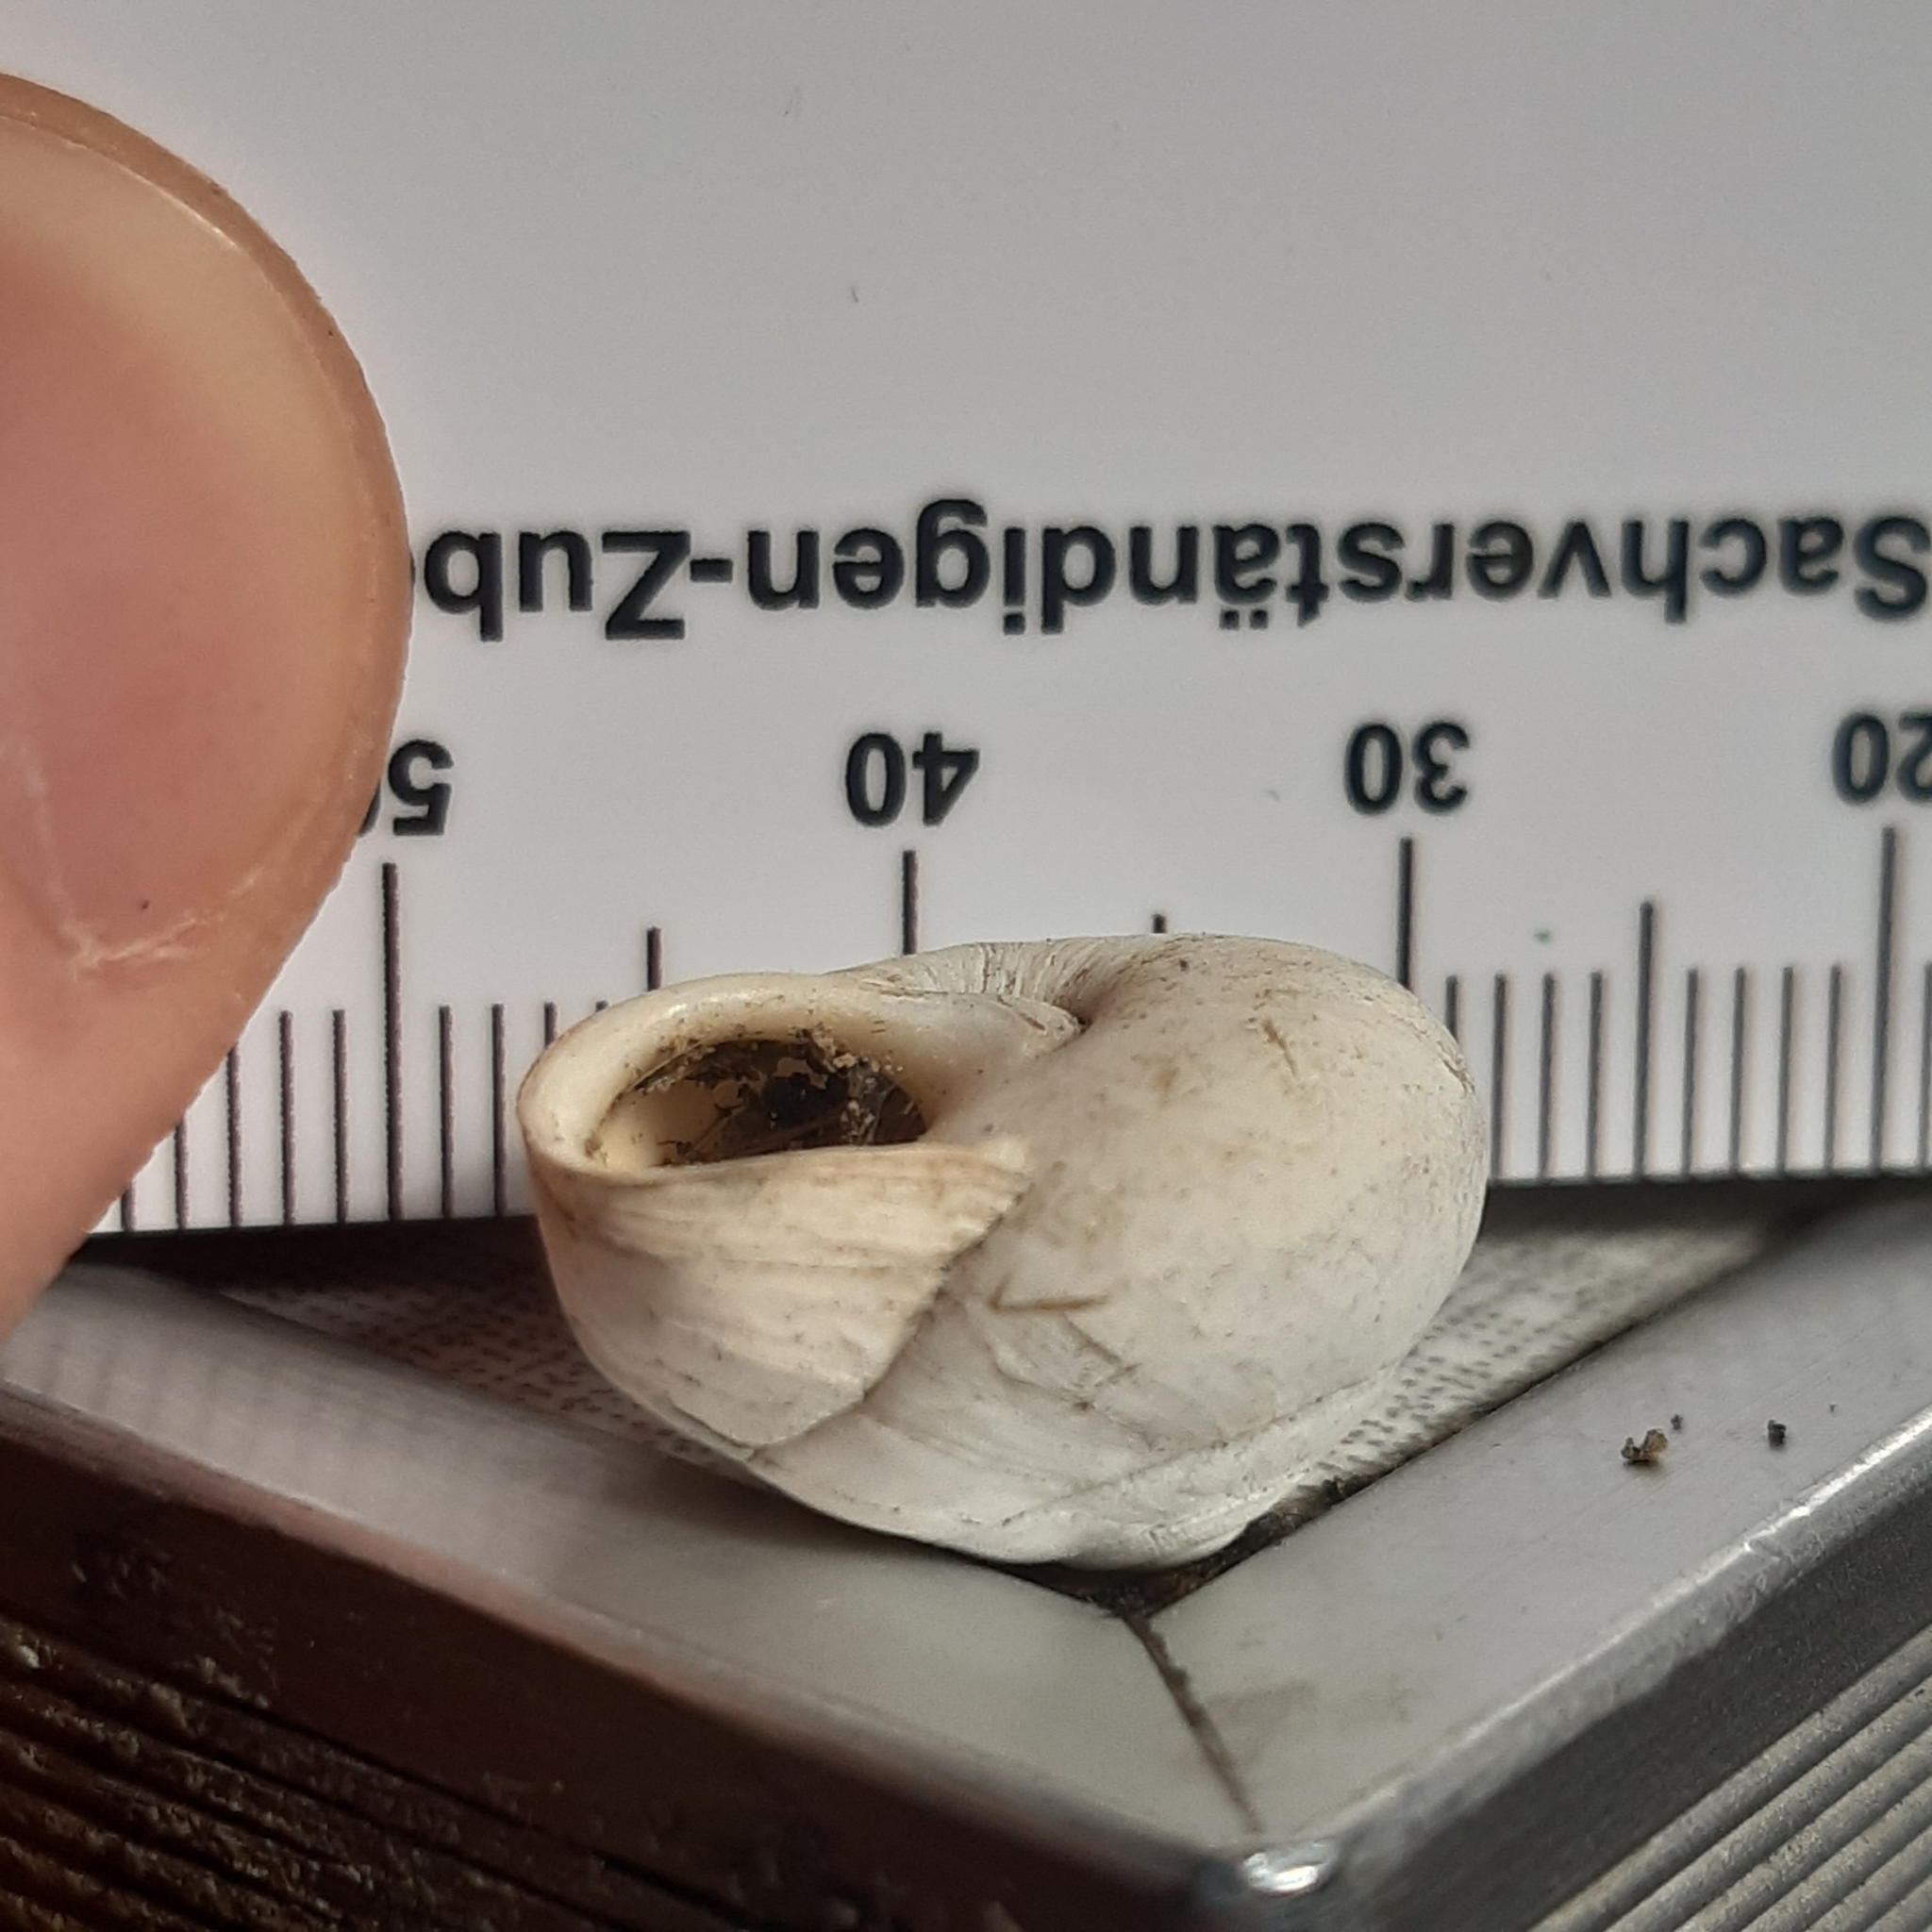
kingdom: Animalia
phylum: Mollusca
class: Gastropoda
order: Stylommatophora
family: Sphincterochilidae
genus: Sphincterochila
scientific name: Sphincterochila candidissima
